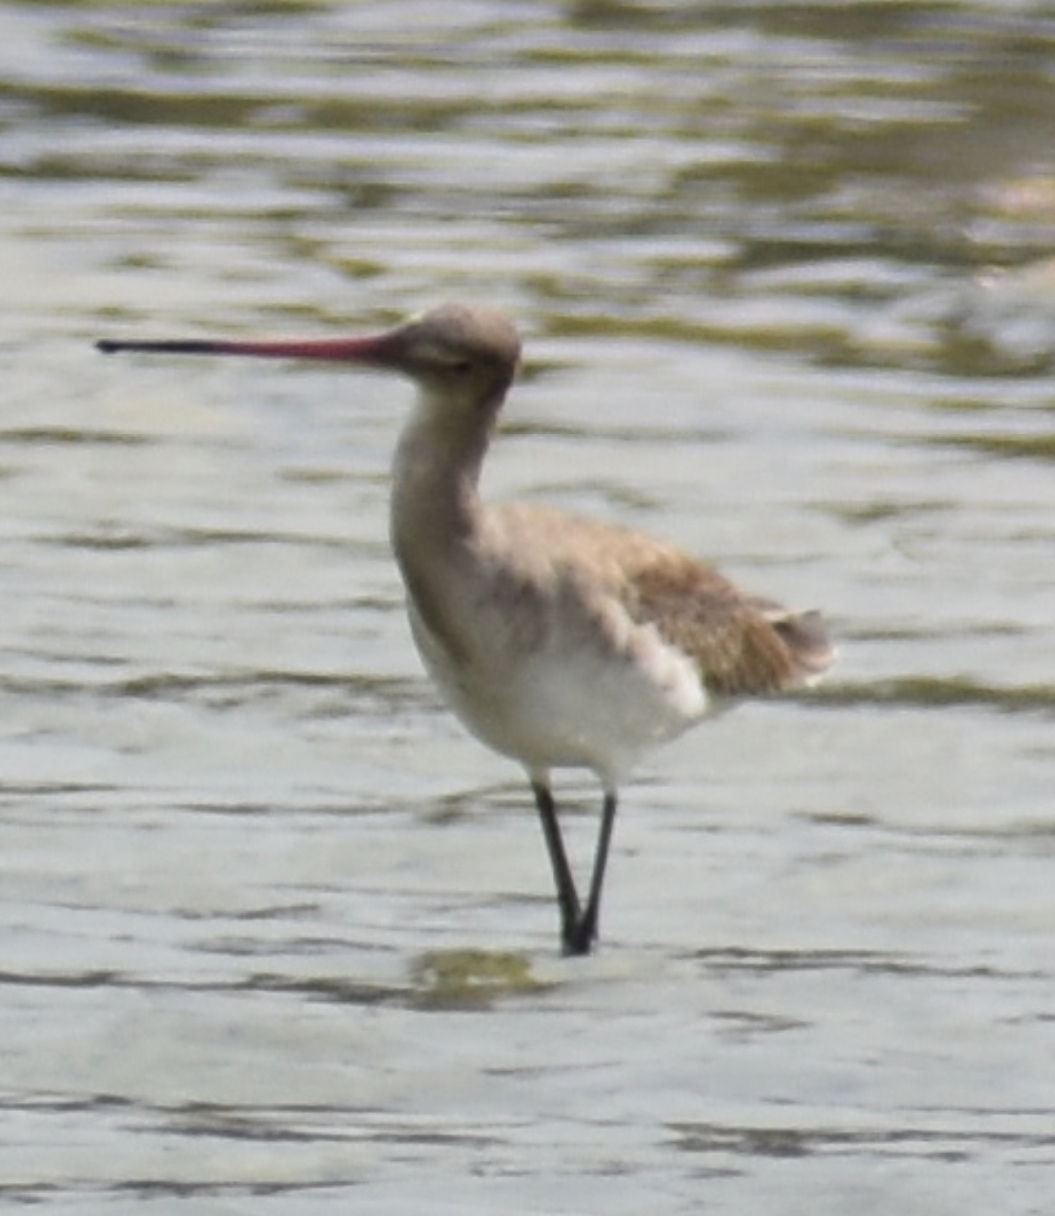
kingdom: Animalia
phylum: Chordata
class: Aves
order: Charadriiformes
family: Scolopacidae
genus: Limosa
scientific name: Limosa limosa
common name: Black-tailed godwit
